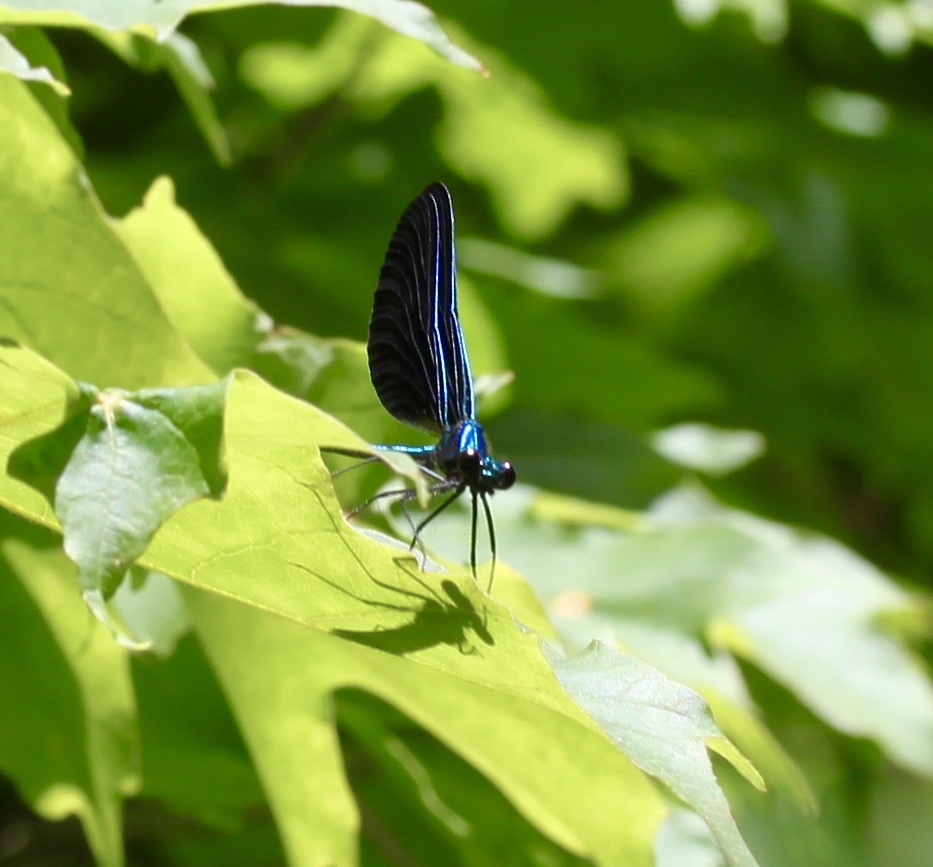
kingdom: Animalia
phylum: Arthropoda
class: Insecta
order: Odonata
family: Calopterygidae
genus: Calopteryx
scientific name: Calopteryx maculata
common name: Ebony jewelwing
